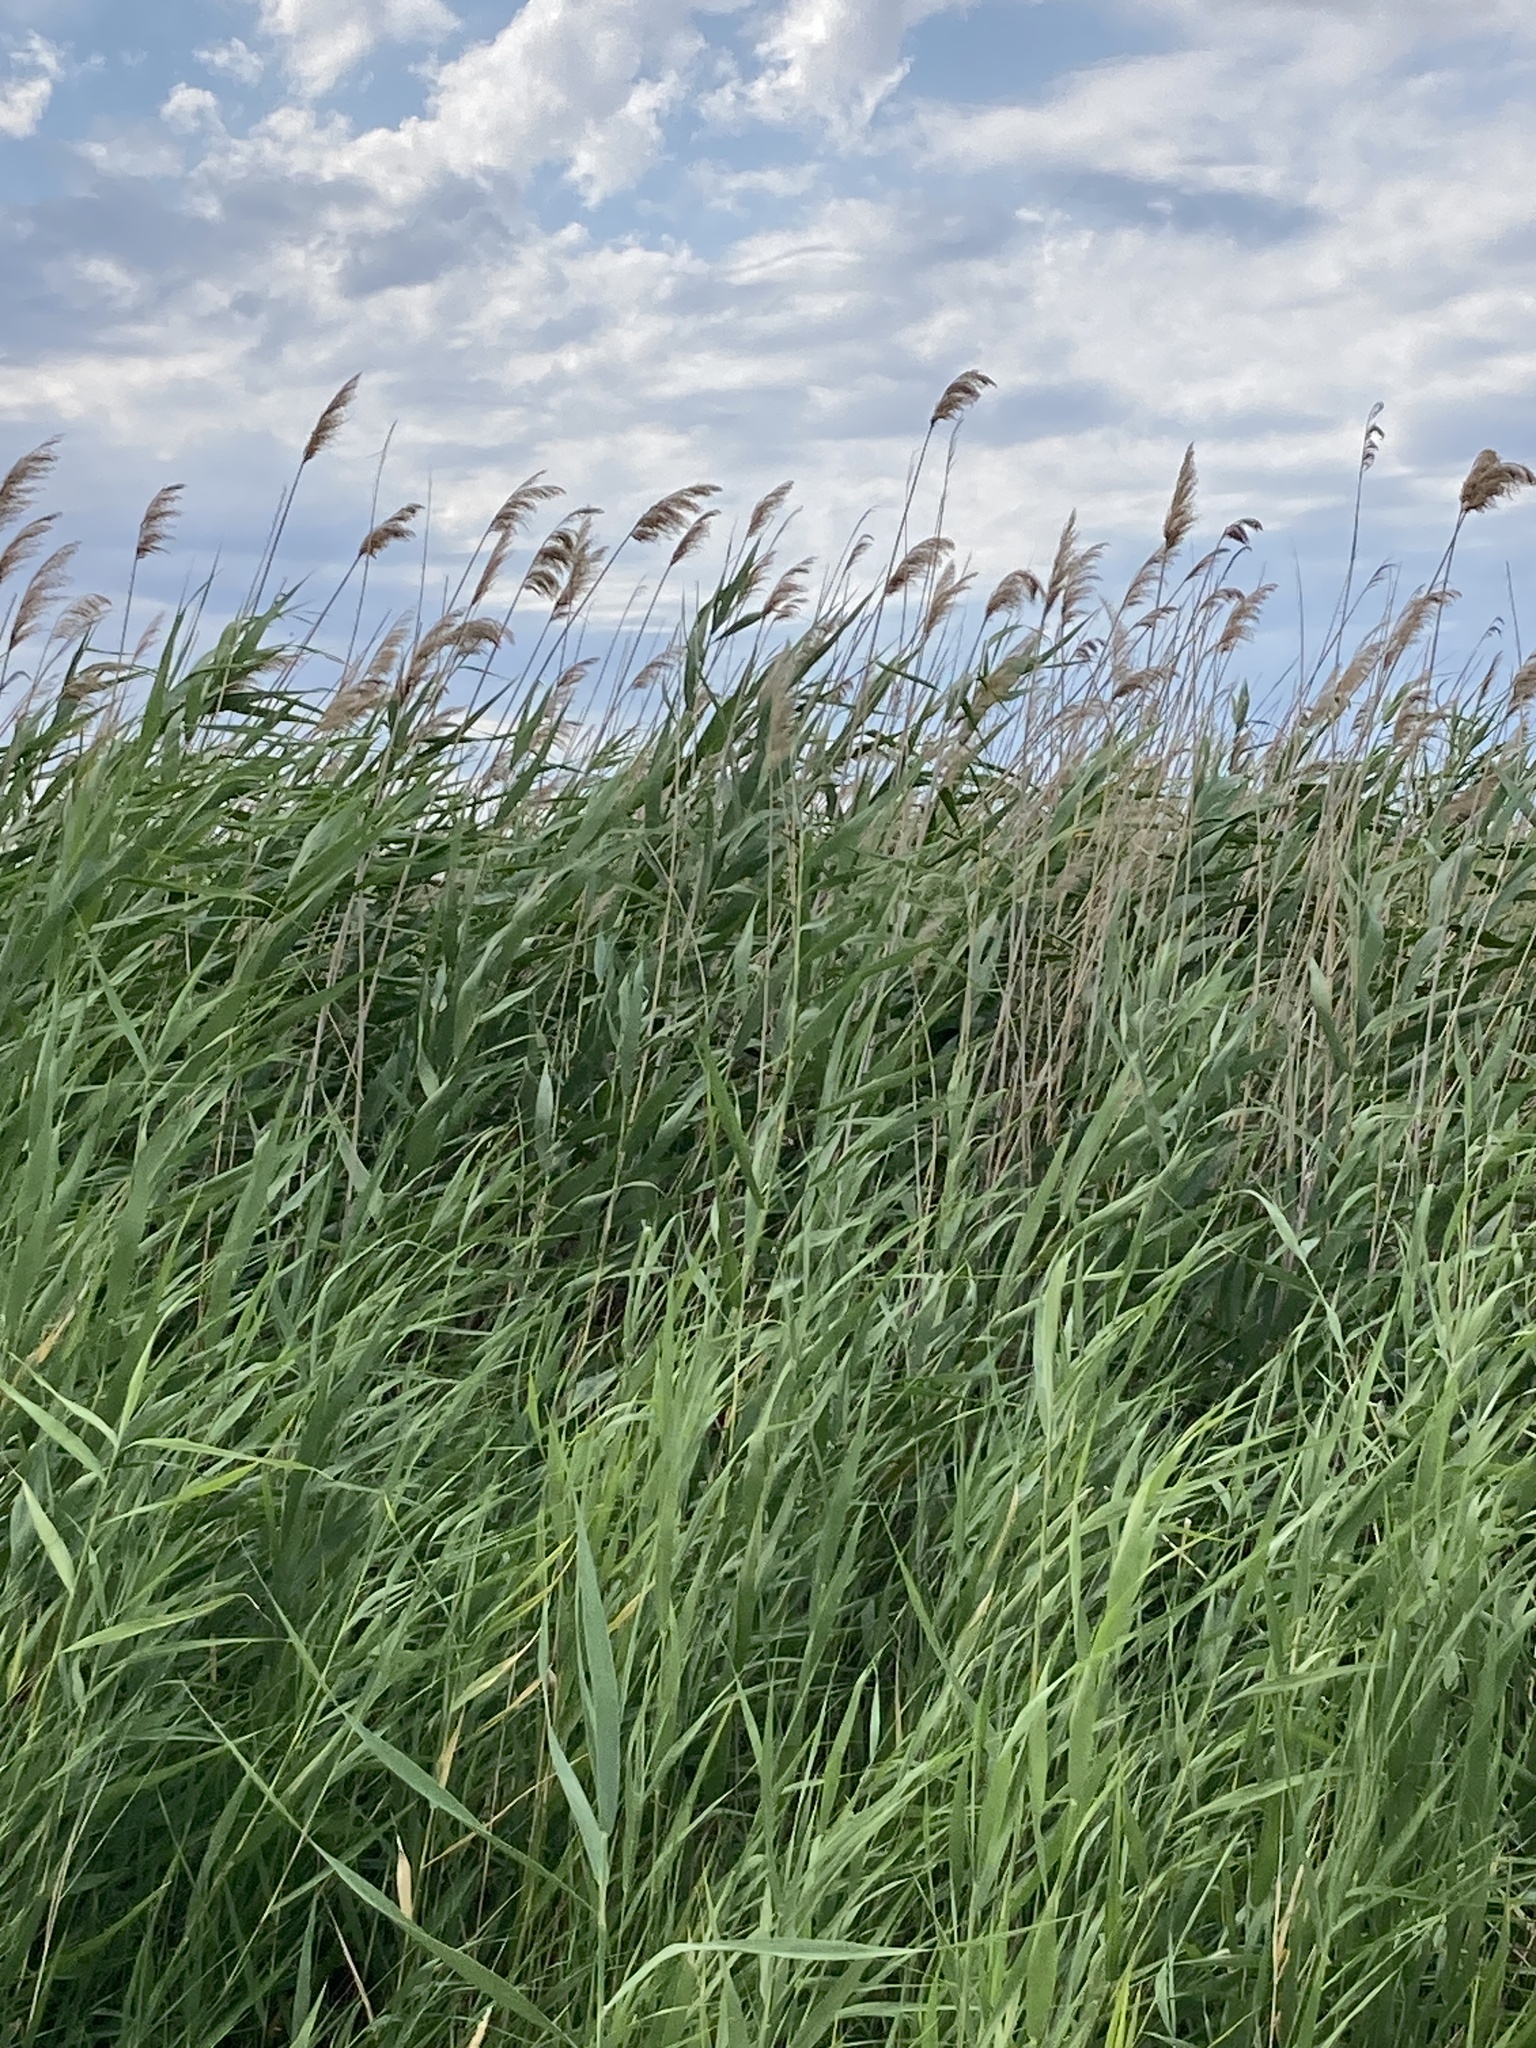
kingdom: Plantae
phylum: Tracheophyta
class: Liliopsida
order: Poales
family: Poaceae
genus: Phragmites
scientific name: Phragmites australis
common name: Common reed
